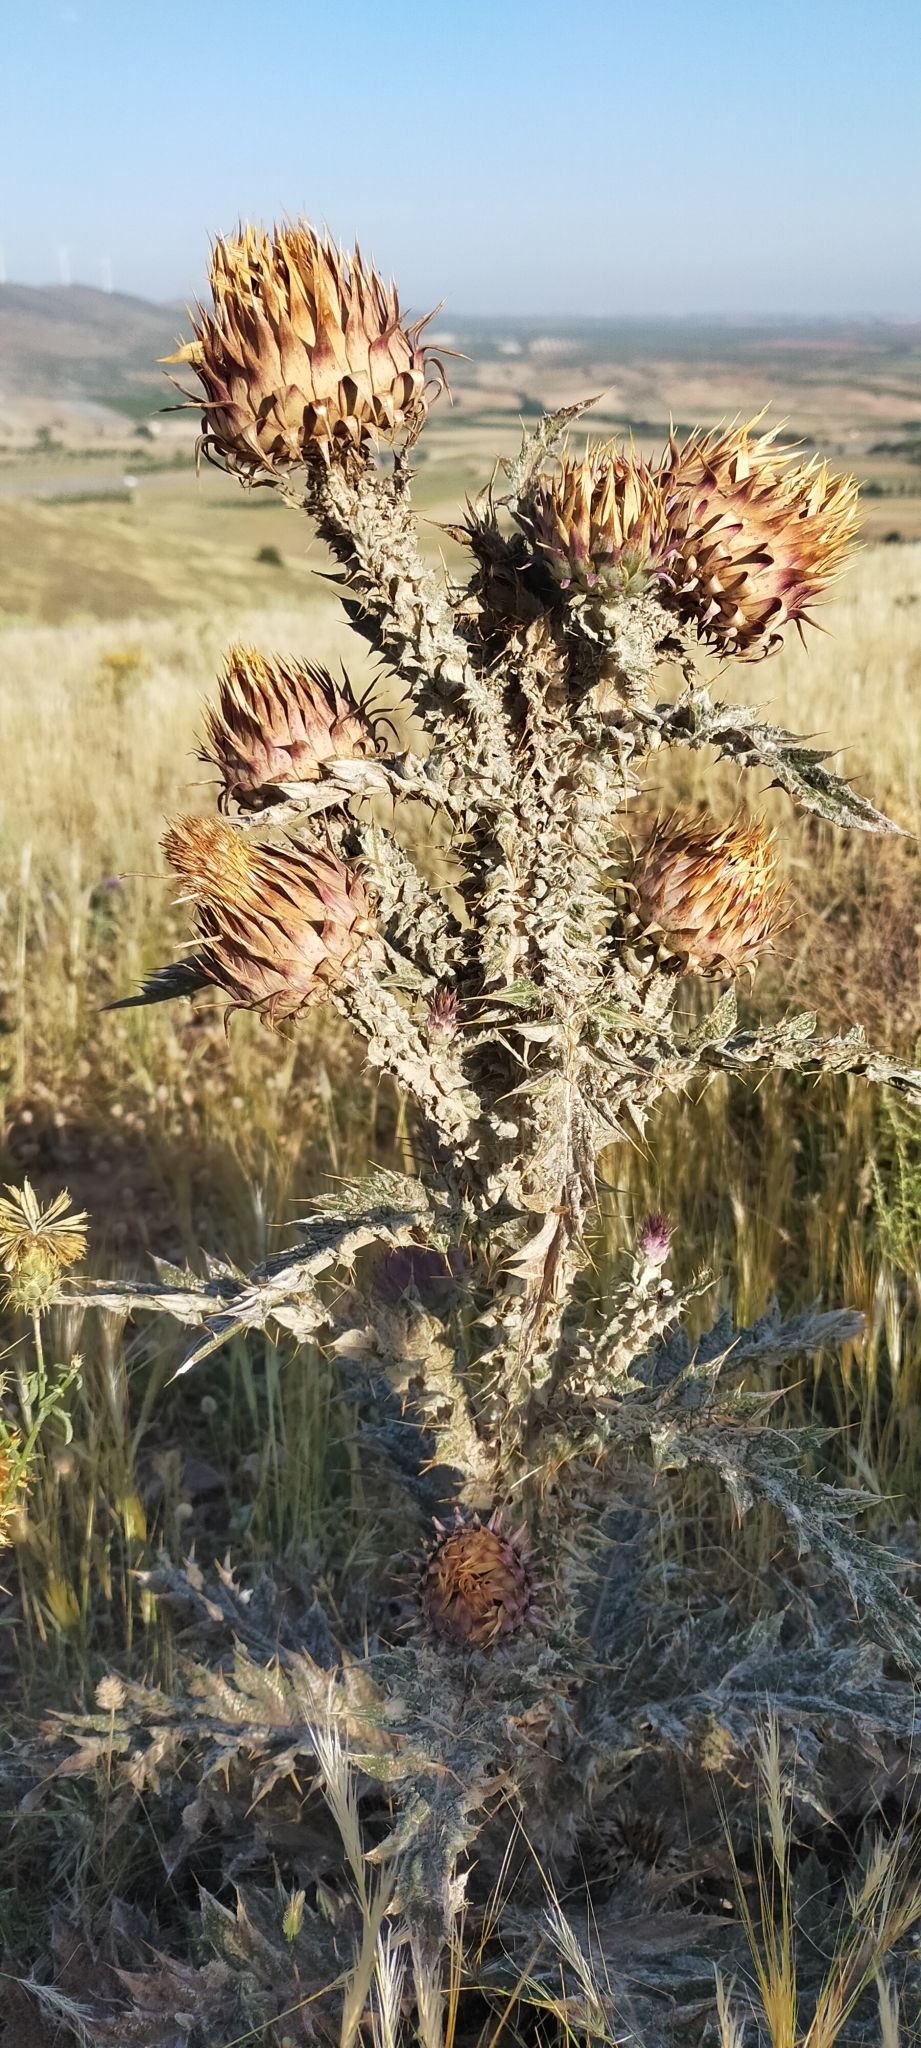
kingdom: Plantae
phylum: Tracheophyta
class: Magnoliopsida
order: Asterales
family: Asteraceae
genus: Onopordum
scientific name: Onopordum illyricum
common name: Illyrian thistle
